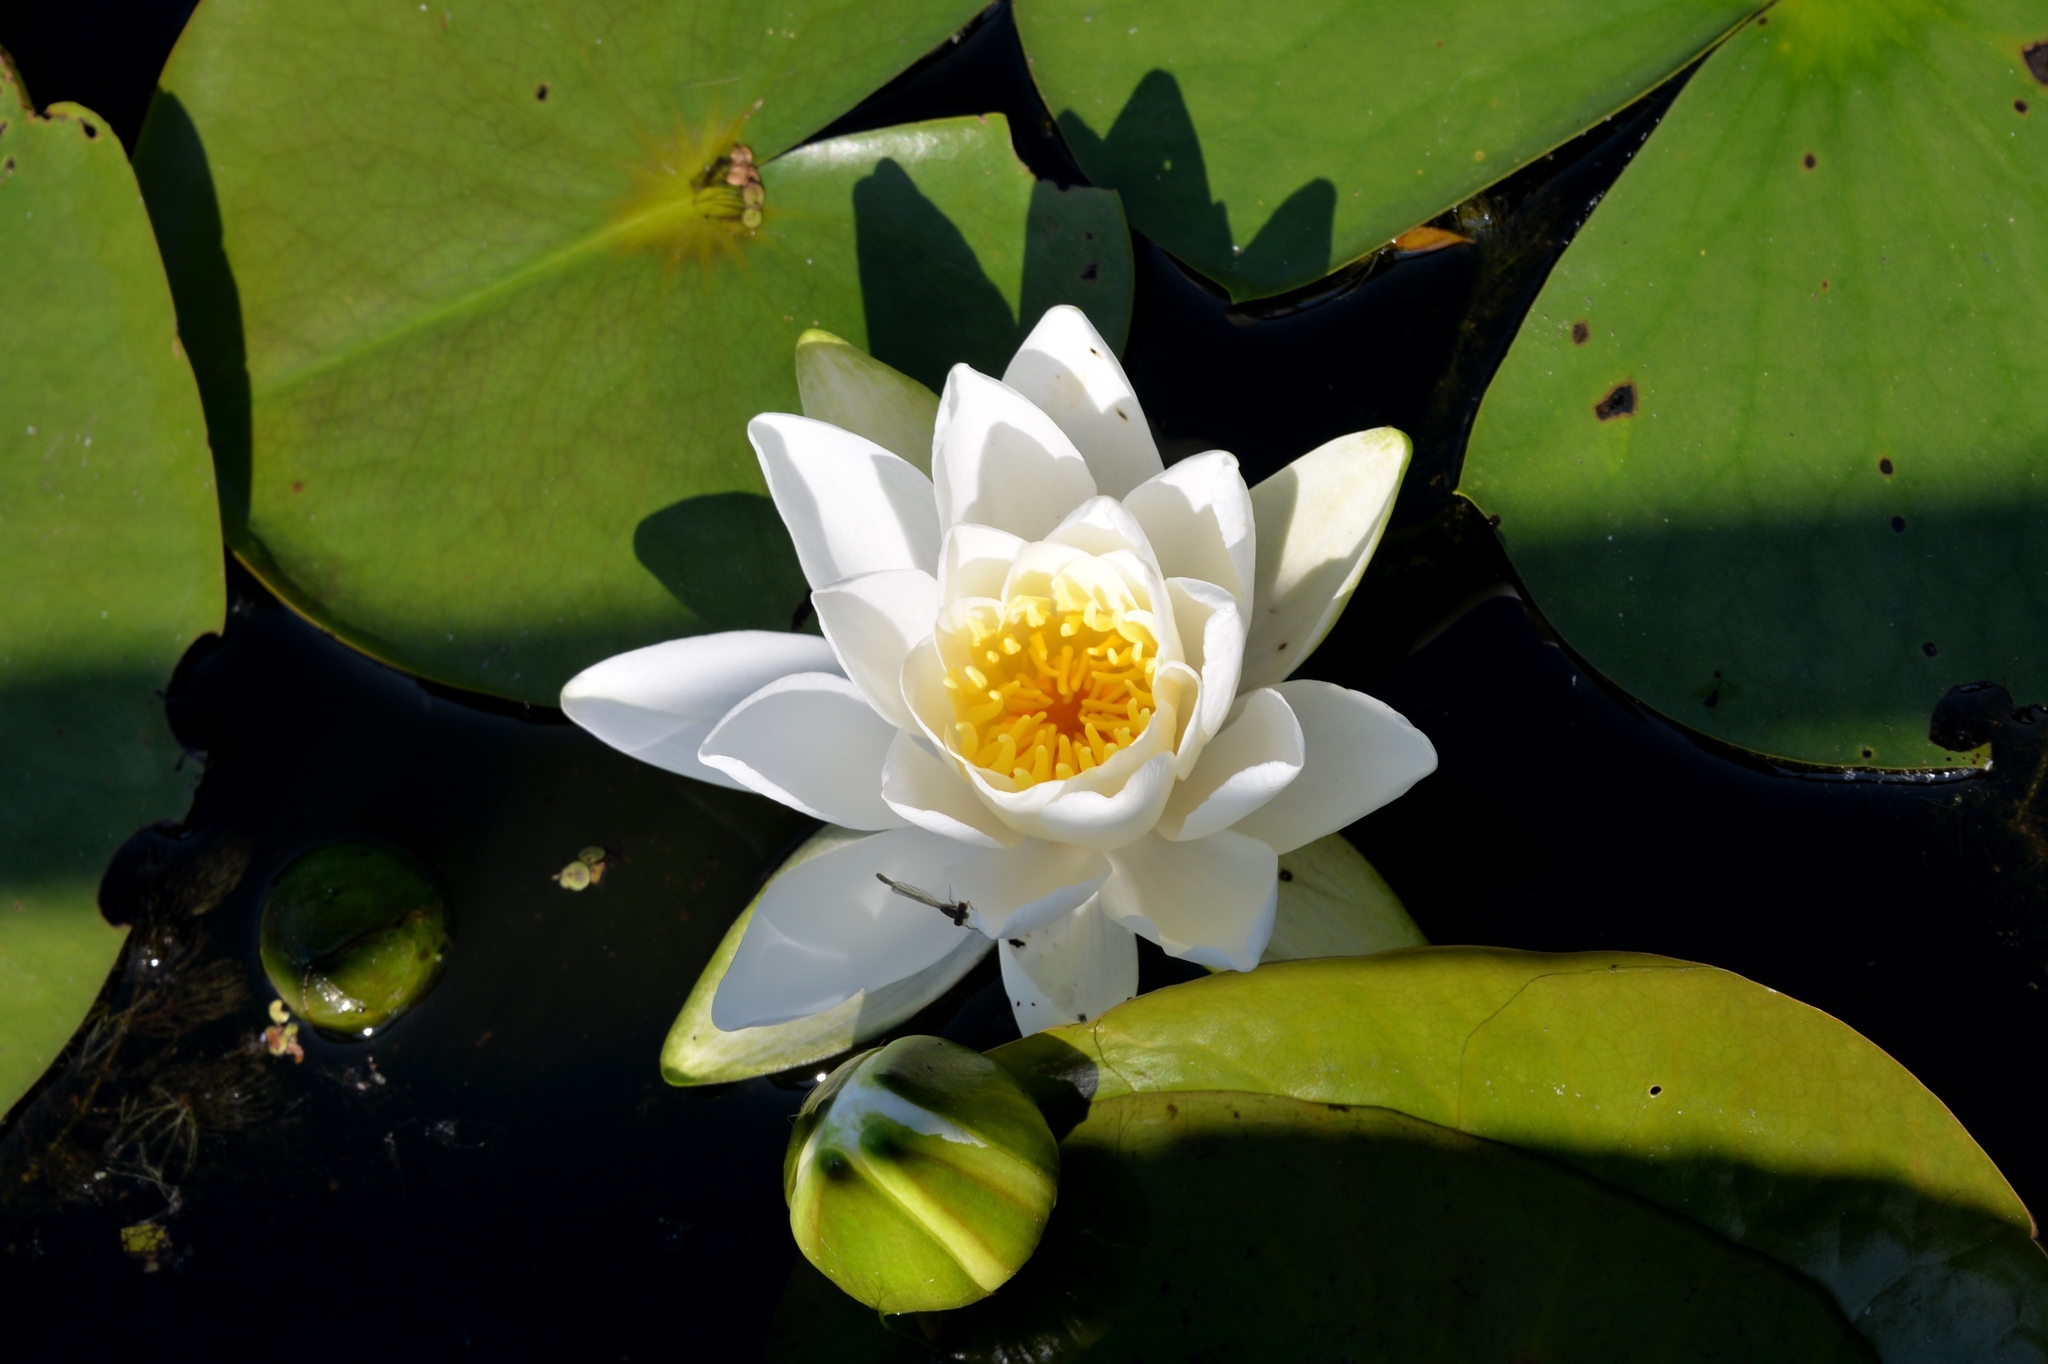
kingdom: Plantae
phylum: Tracheophyta
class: Magnoliopsida
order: Nymphaeales
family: Nymphaeaceae
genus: Nymphaea
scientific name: Nymphaea odorata
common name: Fragrant water-lily
